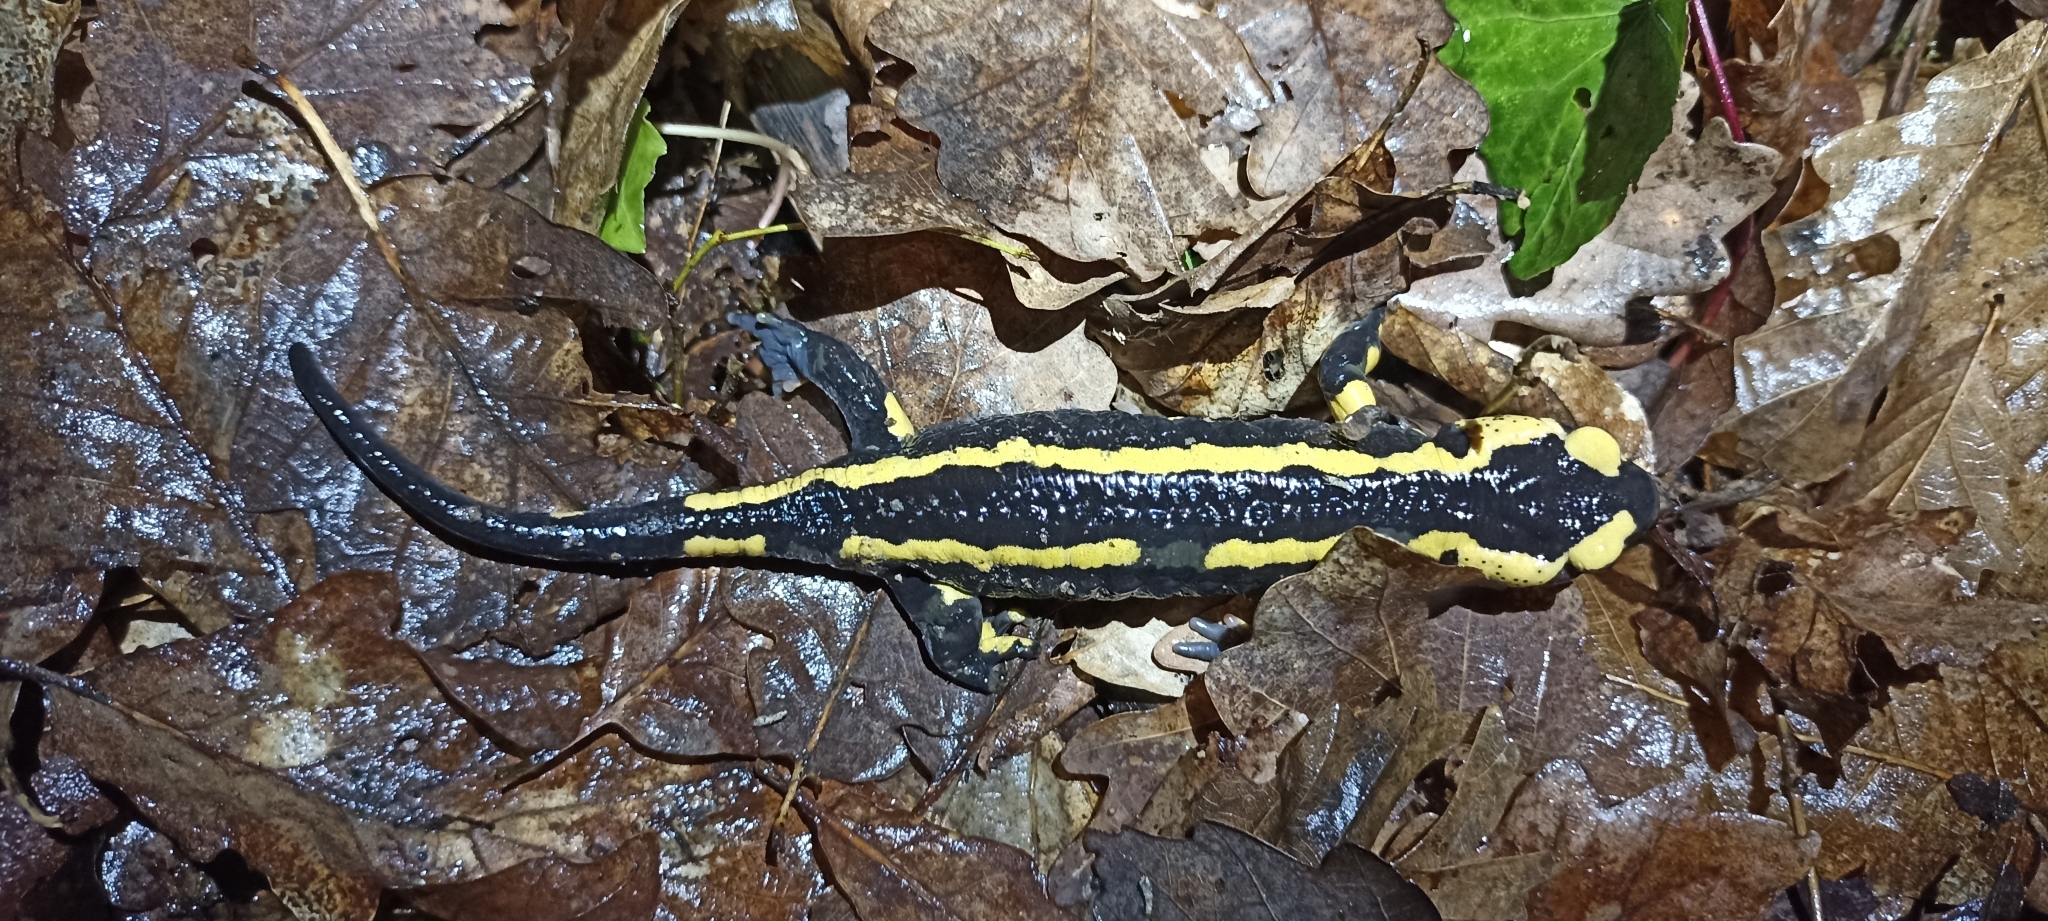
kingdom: Animalia
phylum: Chordata
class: Amphibia
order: Caudata
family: Salamandridae
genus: Salamandra
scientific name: Salamandra salamandra
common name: Fire salamander
